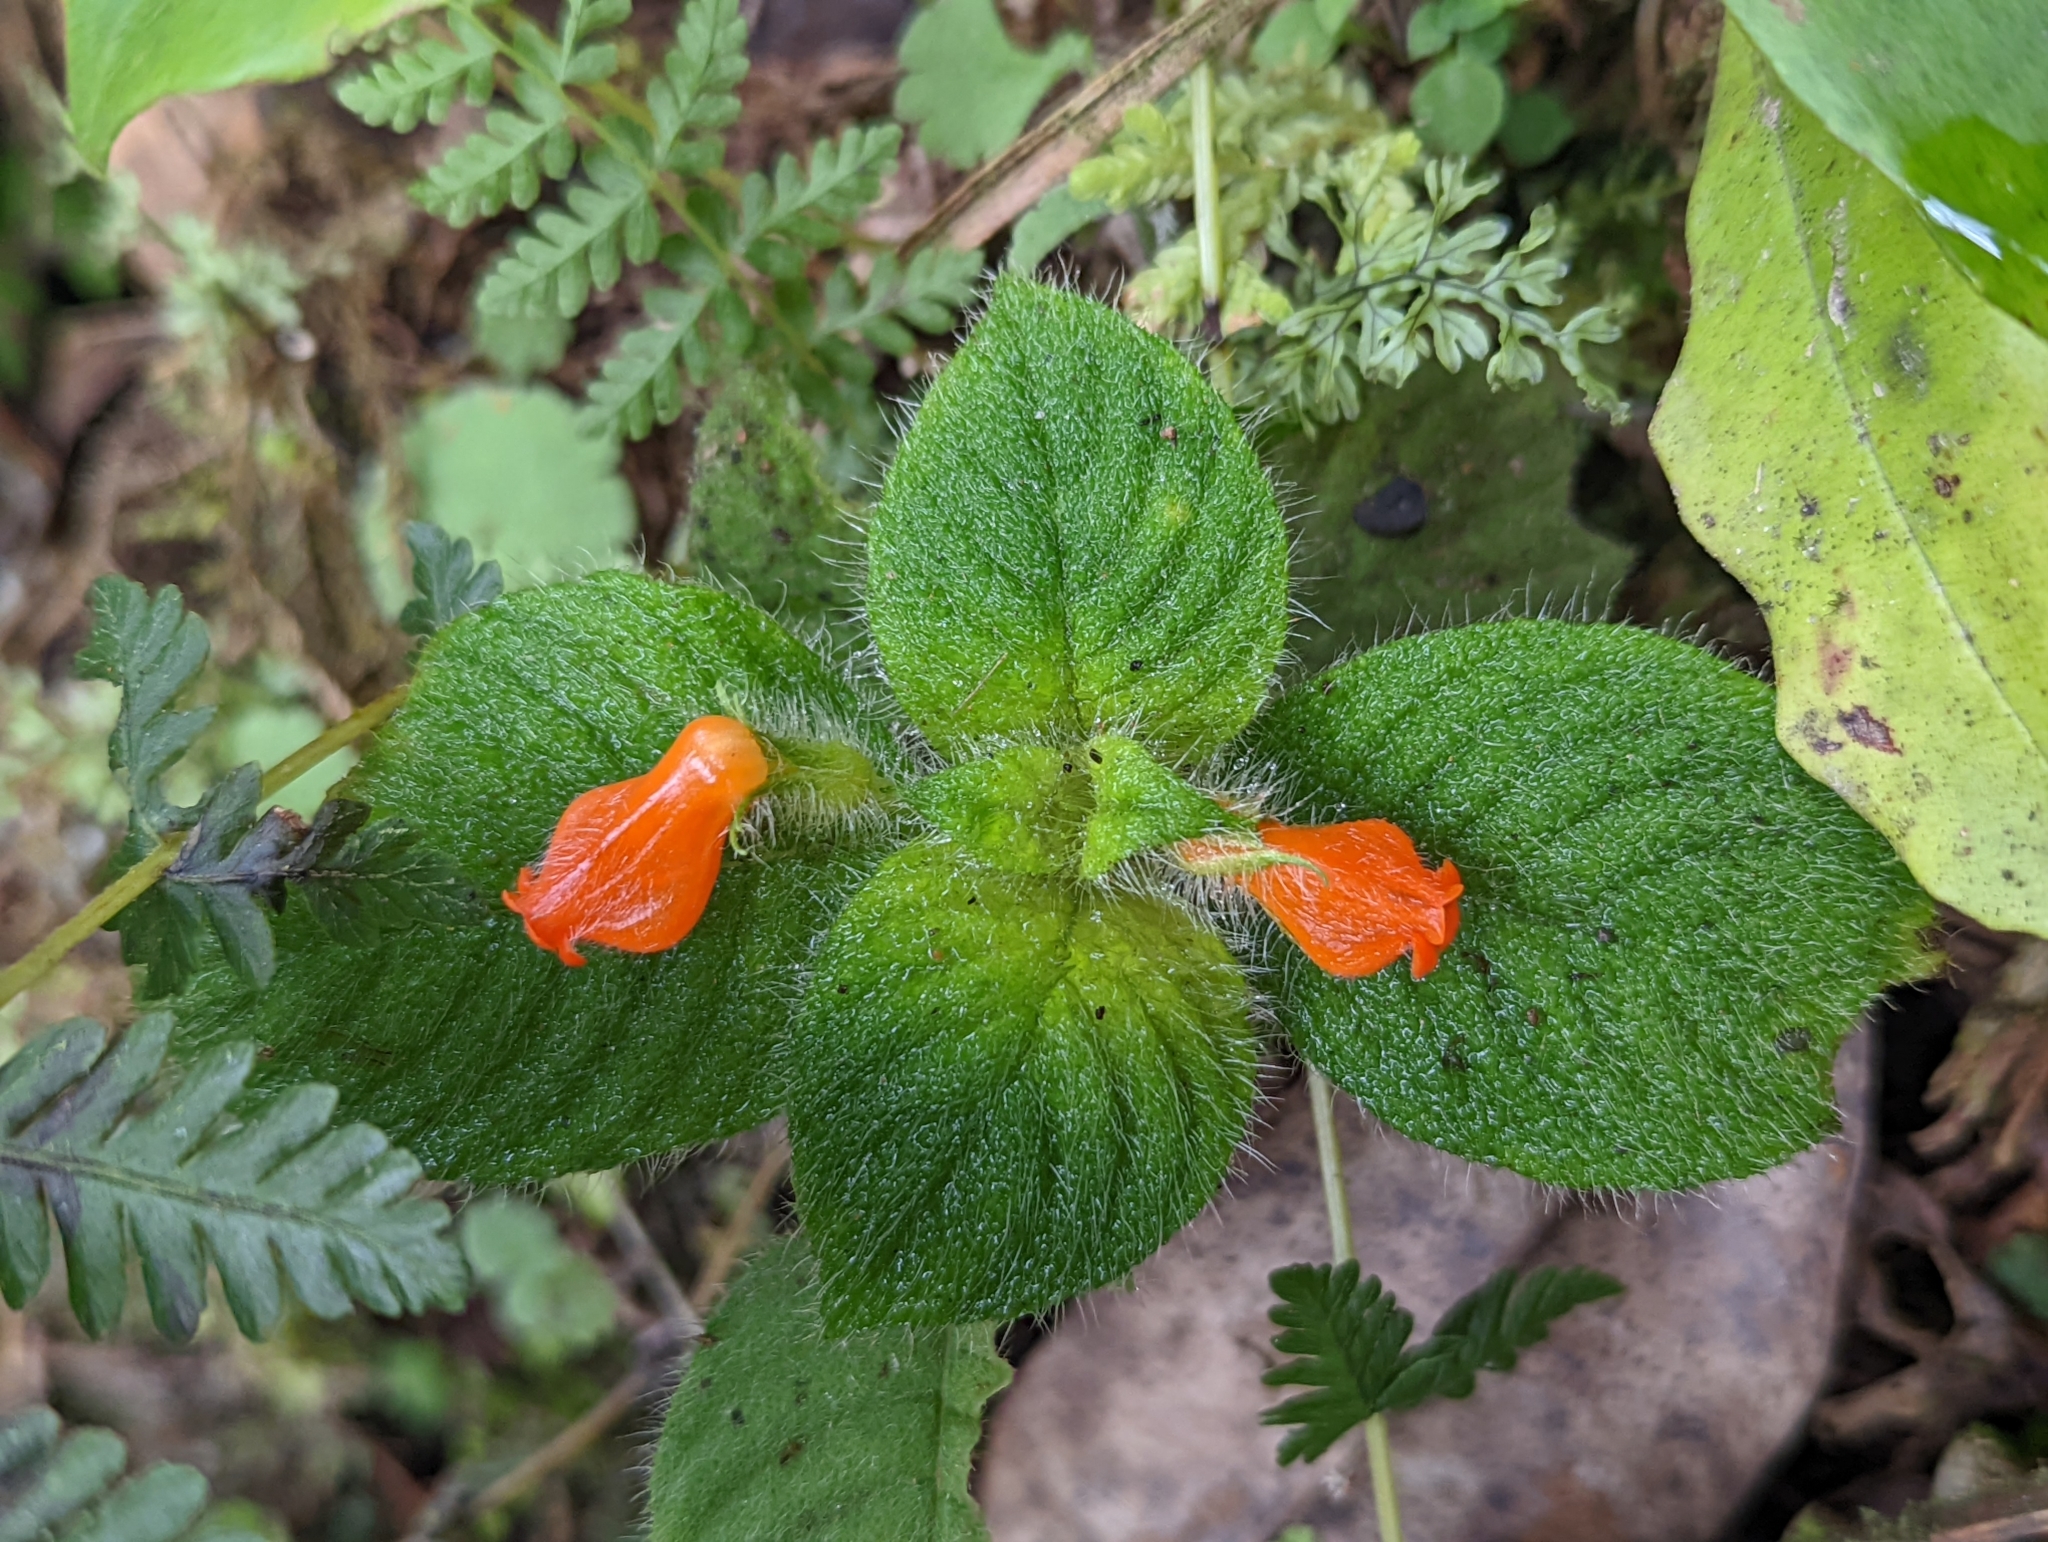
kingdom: Plantae
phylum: Tracheophyta
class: Magnoliopsida
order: Lamiales
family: Gesneriaceae
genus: Besleria
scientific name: Besleria riparia
